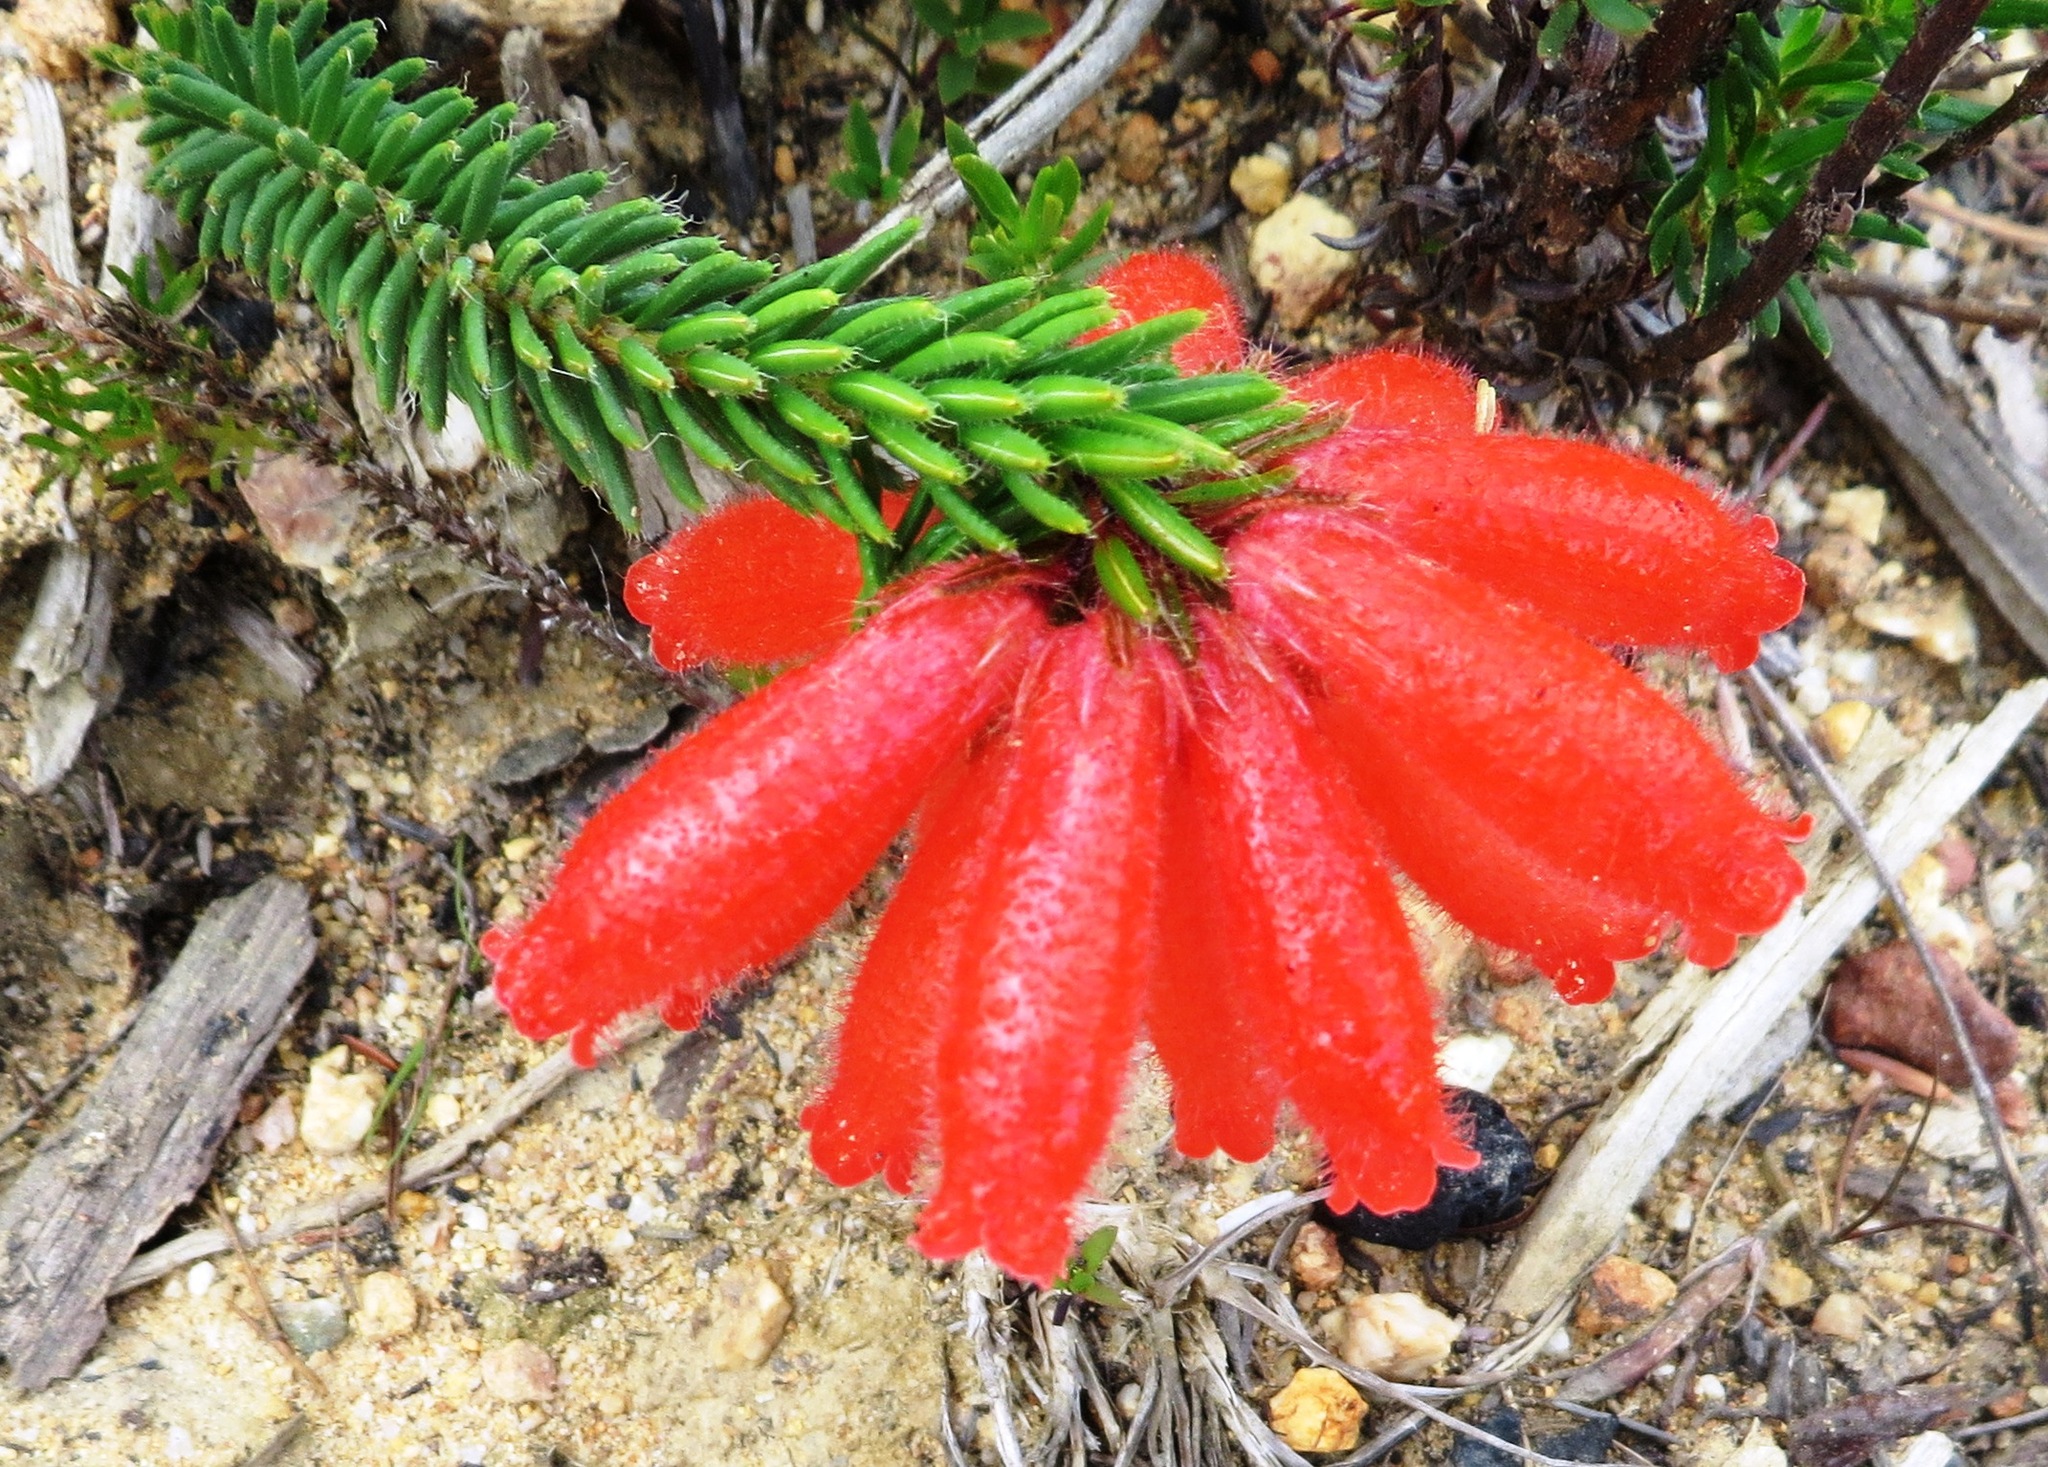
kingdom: Plantae
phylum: Tracheophyta
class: Magnoliopsida
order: Ericales
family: Ericaceae
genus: Erica
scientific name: Erica cerinthoides
